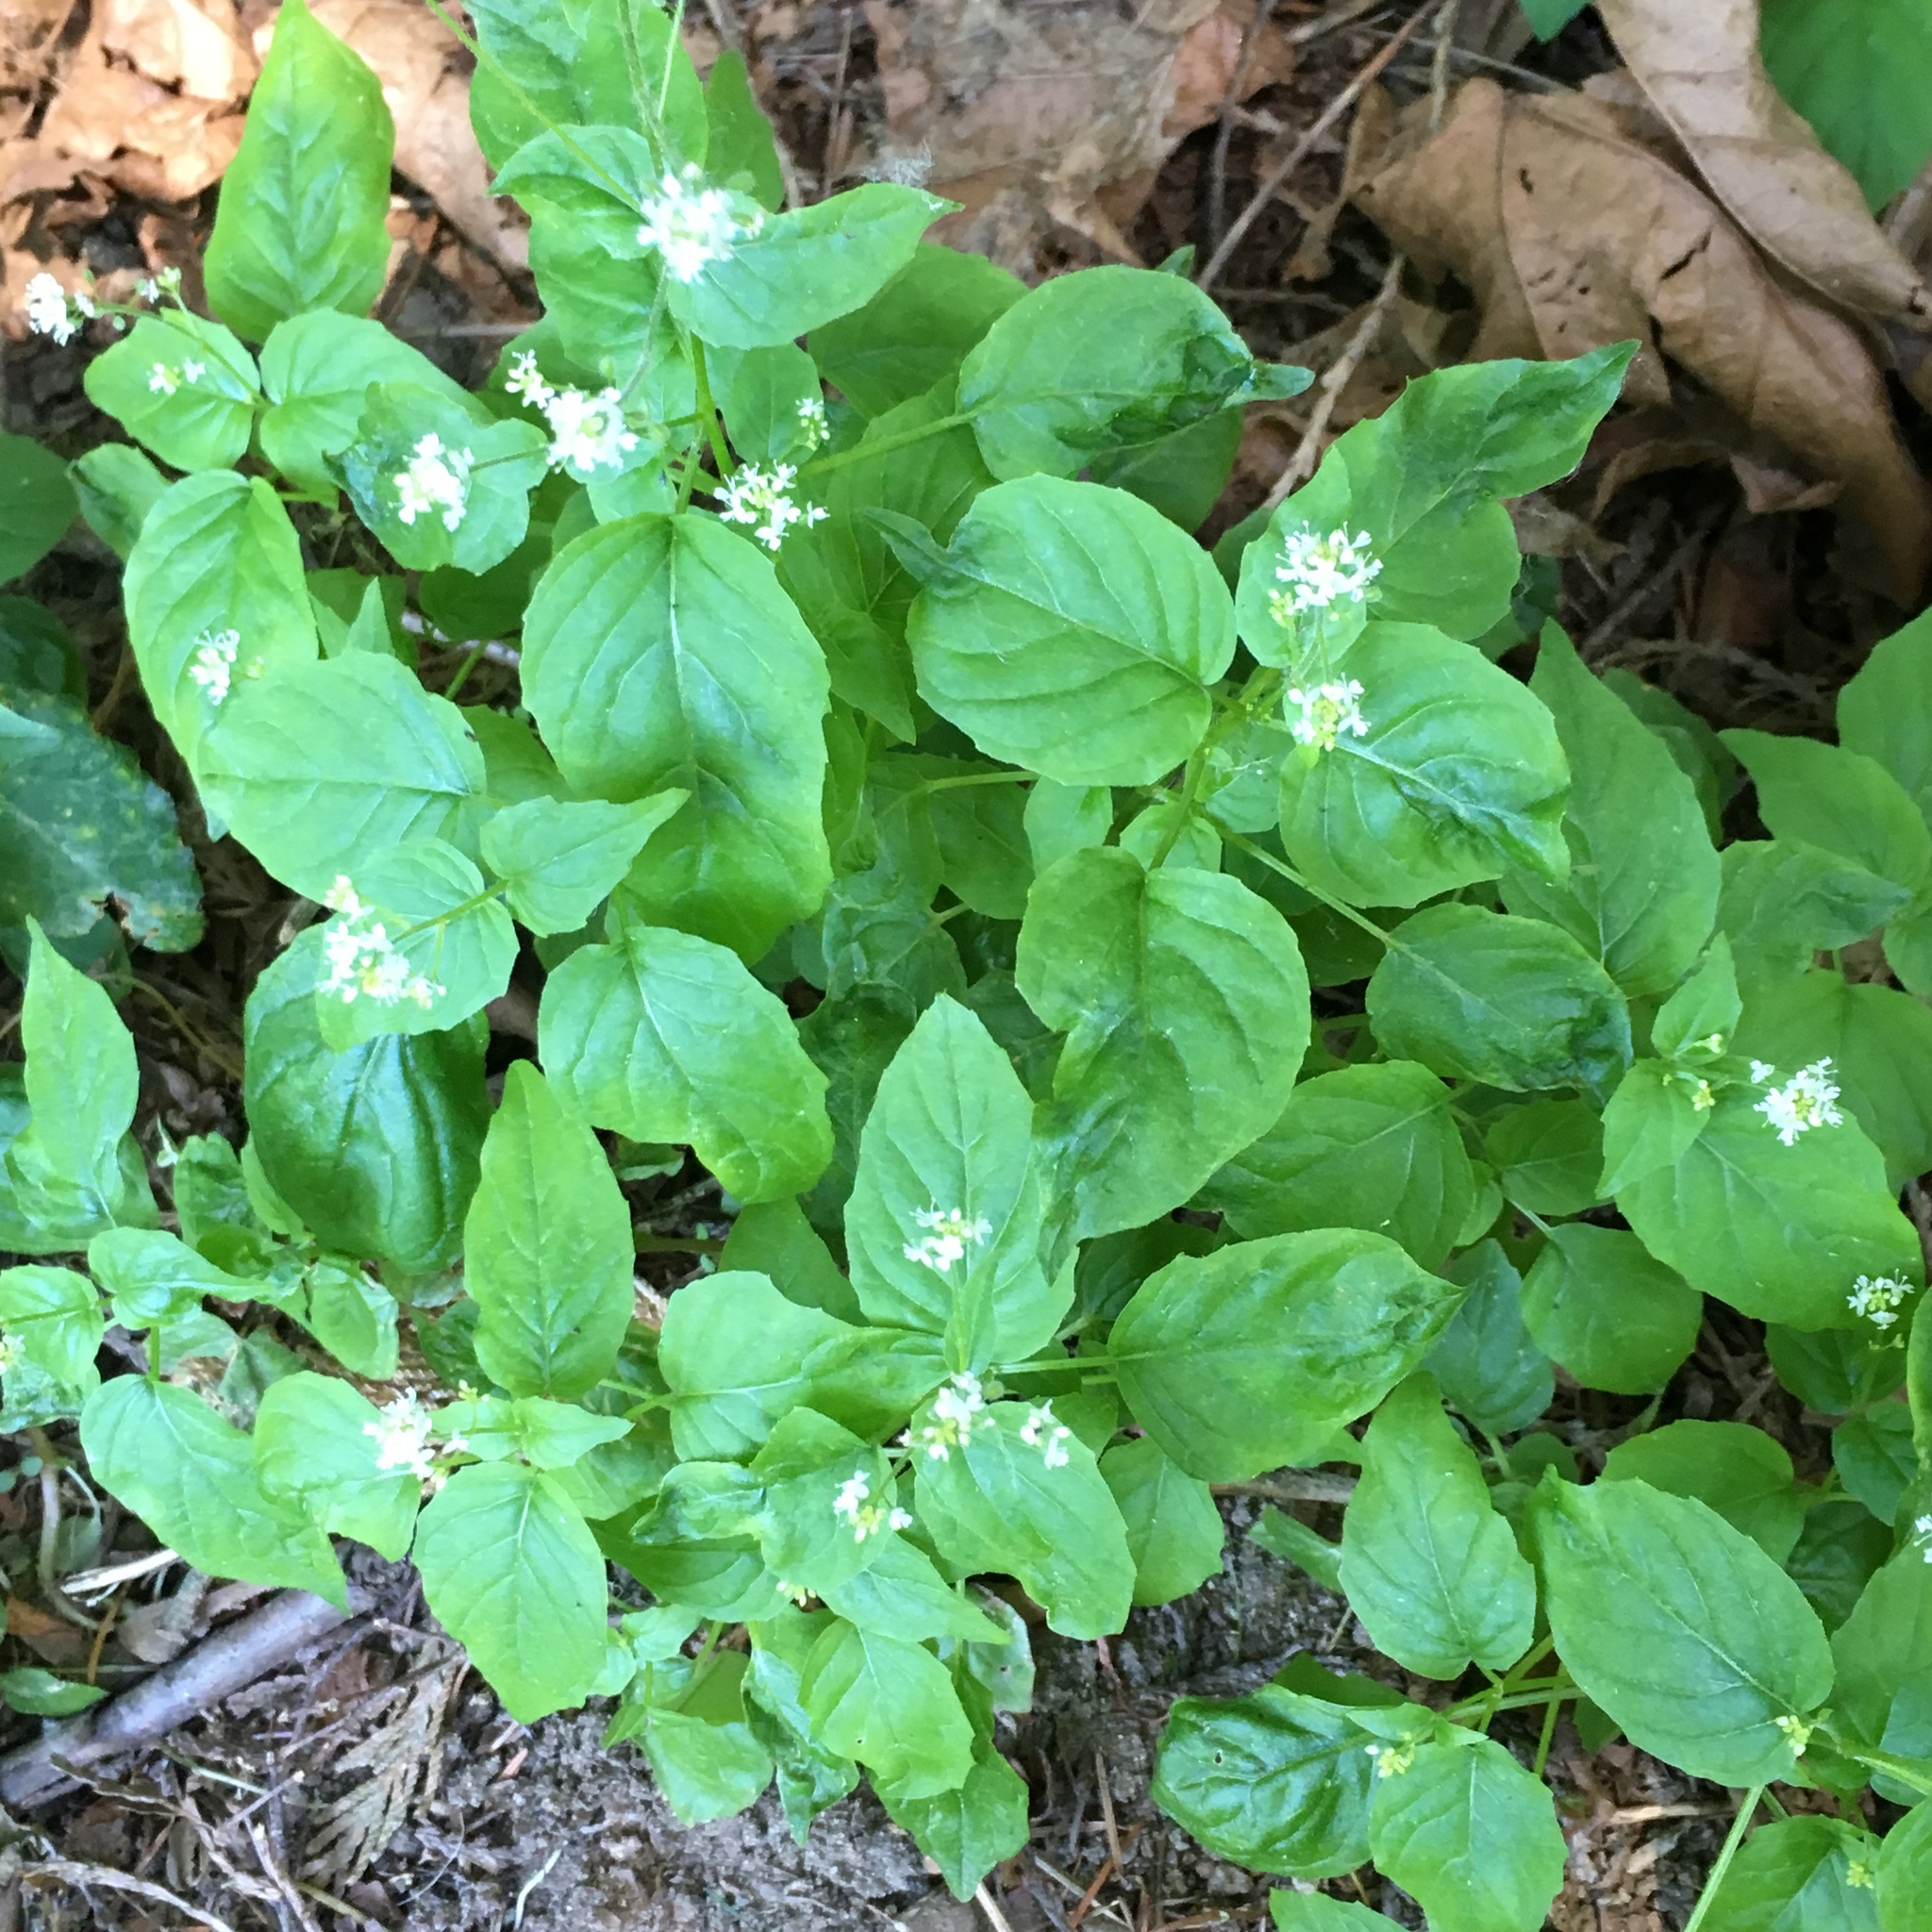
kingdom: Plantae
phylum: Tracheophyta
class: Magnoliopsida
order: Myrtales
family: Onagraceae
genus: Circaea
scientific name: Circaea alpina
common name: Alpine enchanter's-nightshade
